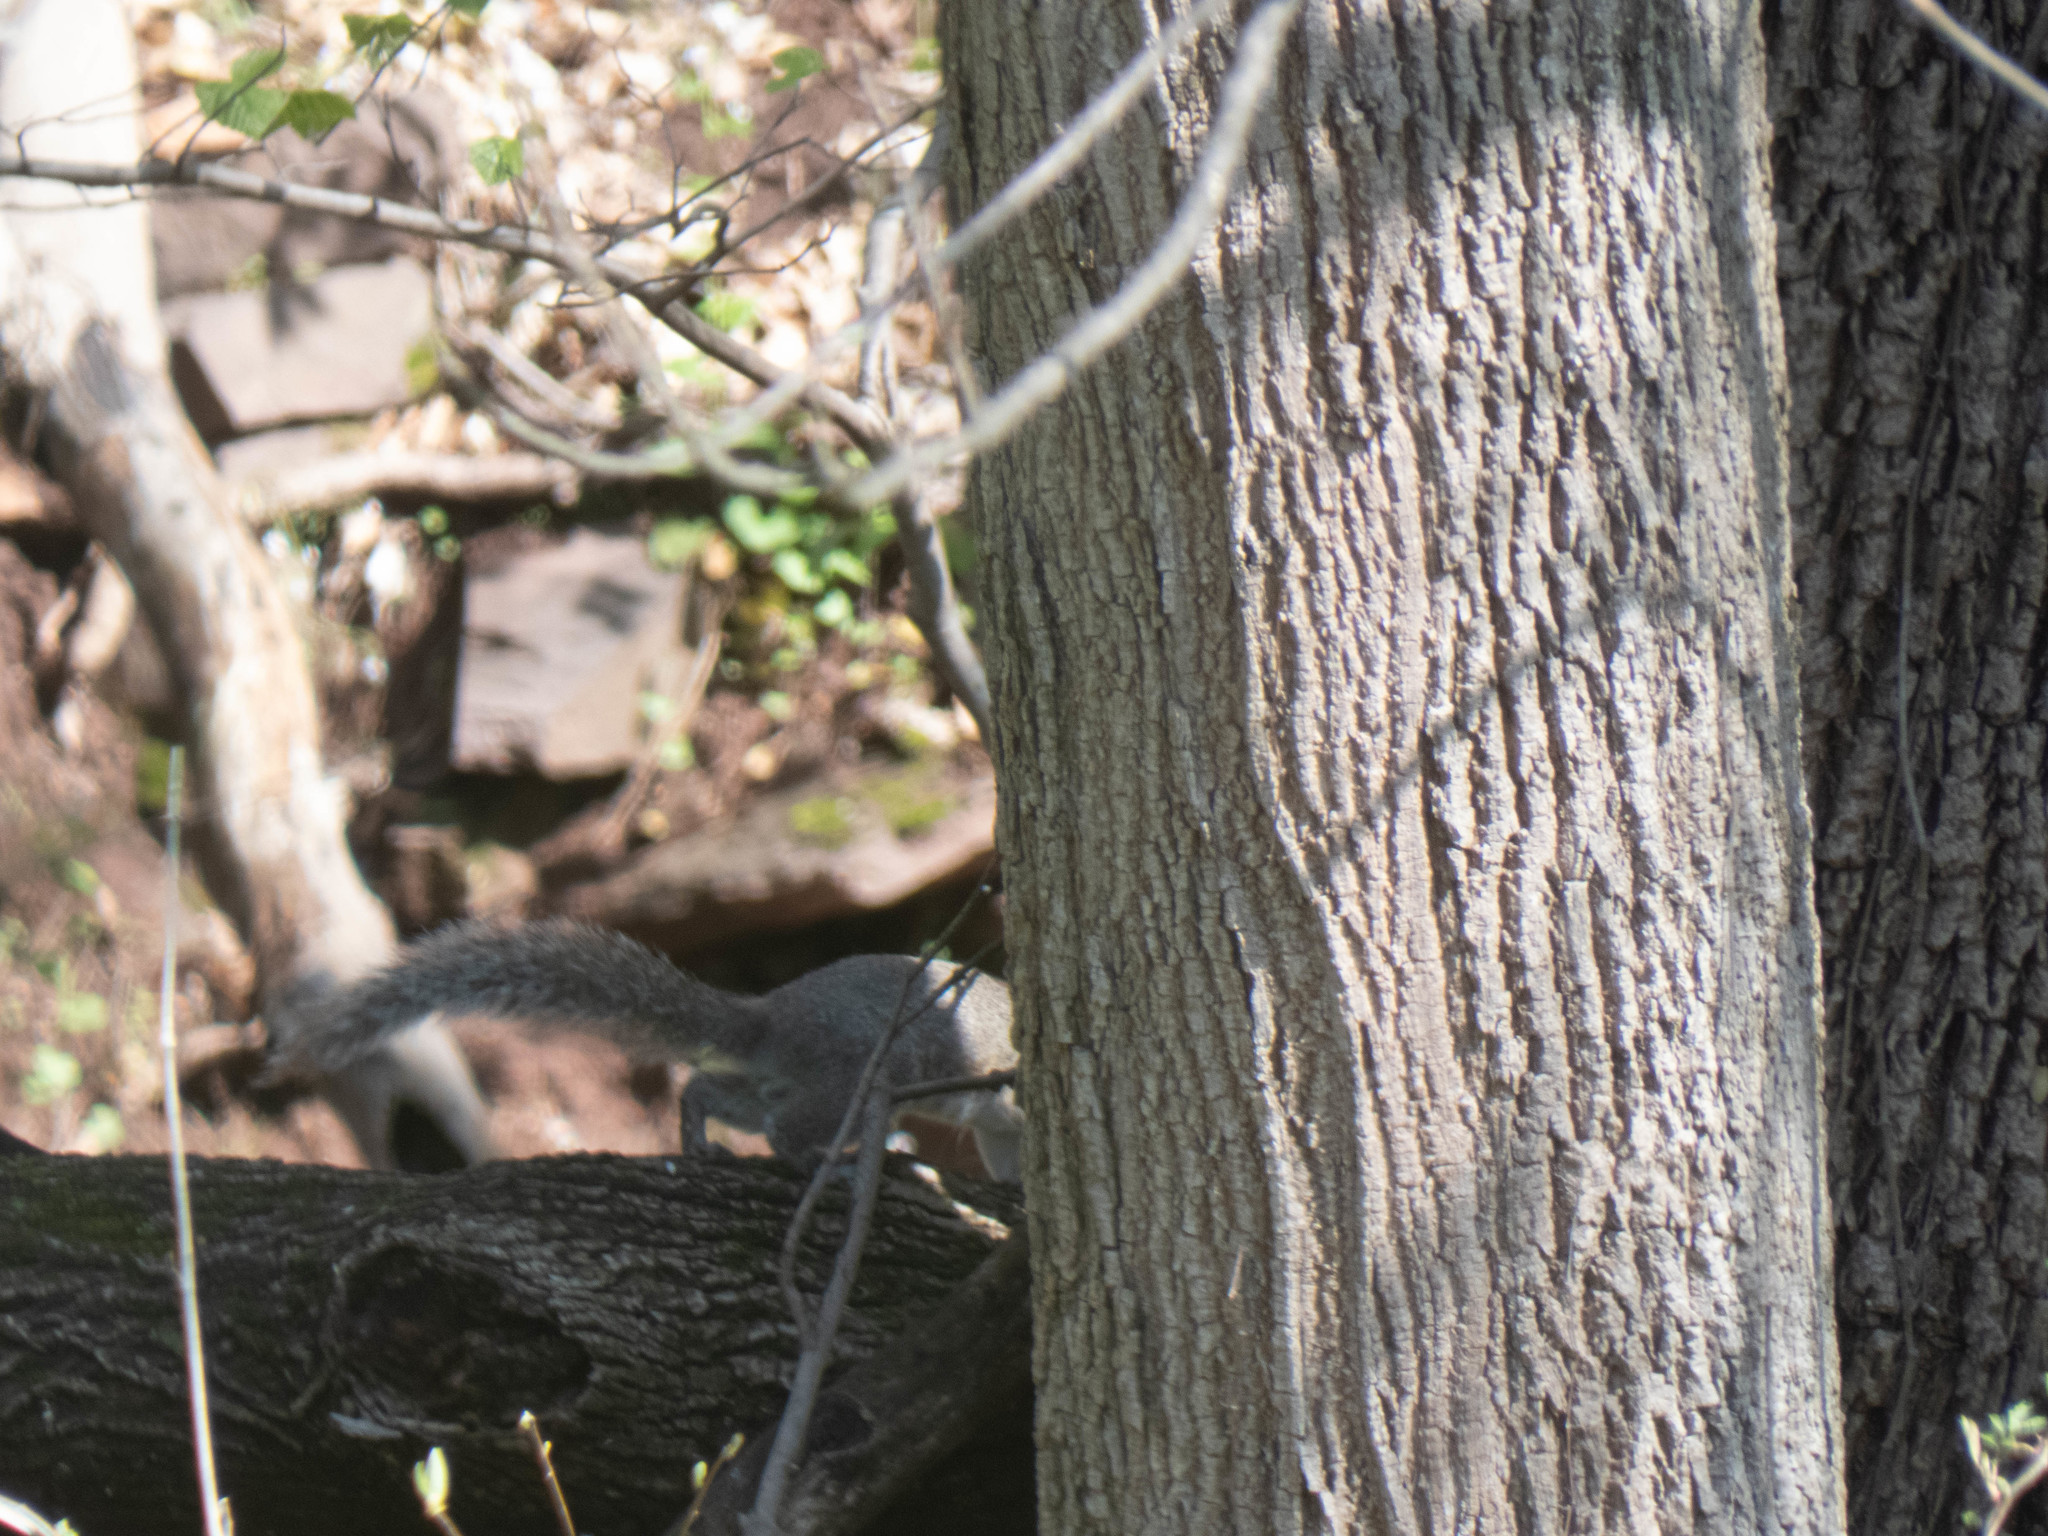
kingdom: Animalia
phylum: Chordata
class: Mammalia
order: Rodentia
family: Sciuridae
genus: Sciurus
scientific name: Sciurus carolinensis
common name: Eastern gray squirrel
